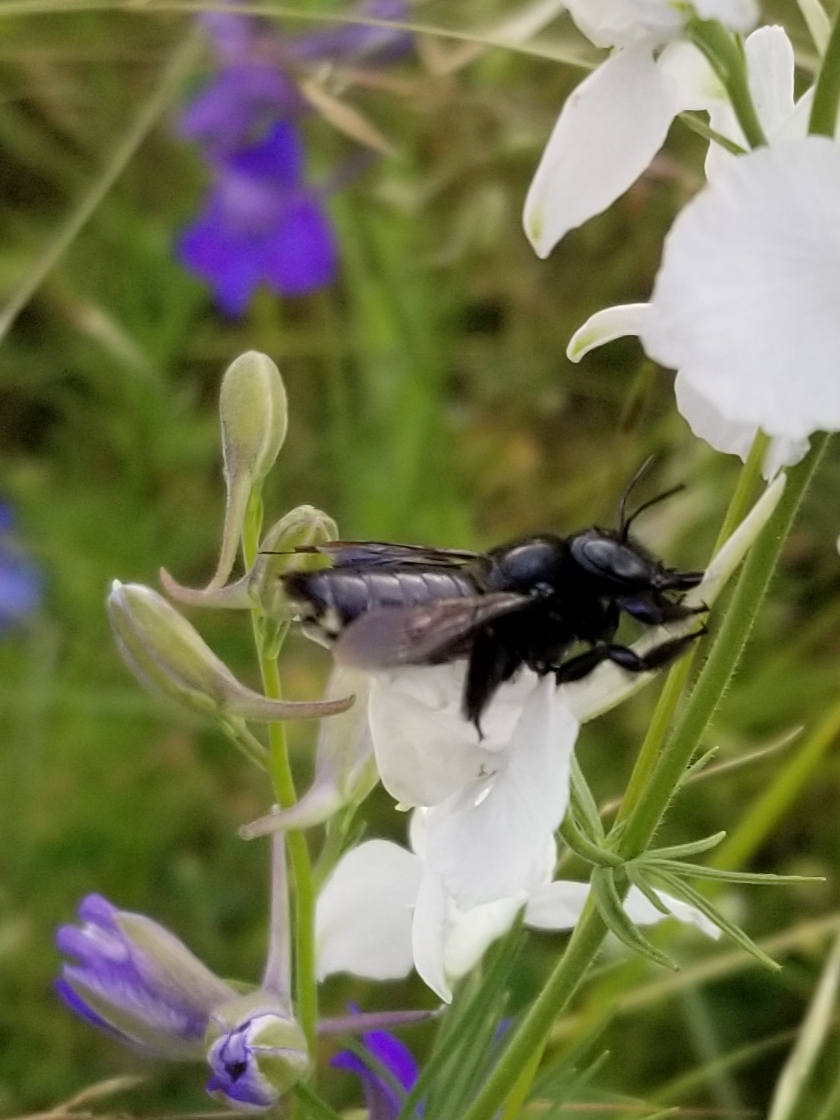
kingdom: Animalia
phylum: Arthropoda
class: Insecta
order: Hymenoptera
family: Apidae
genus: Xylocopa
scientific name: Xylocopa micans
